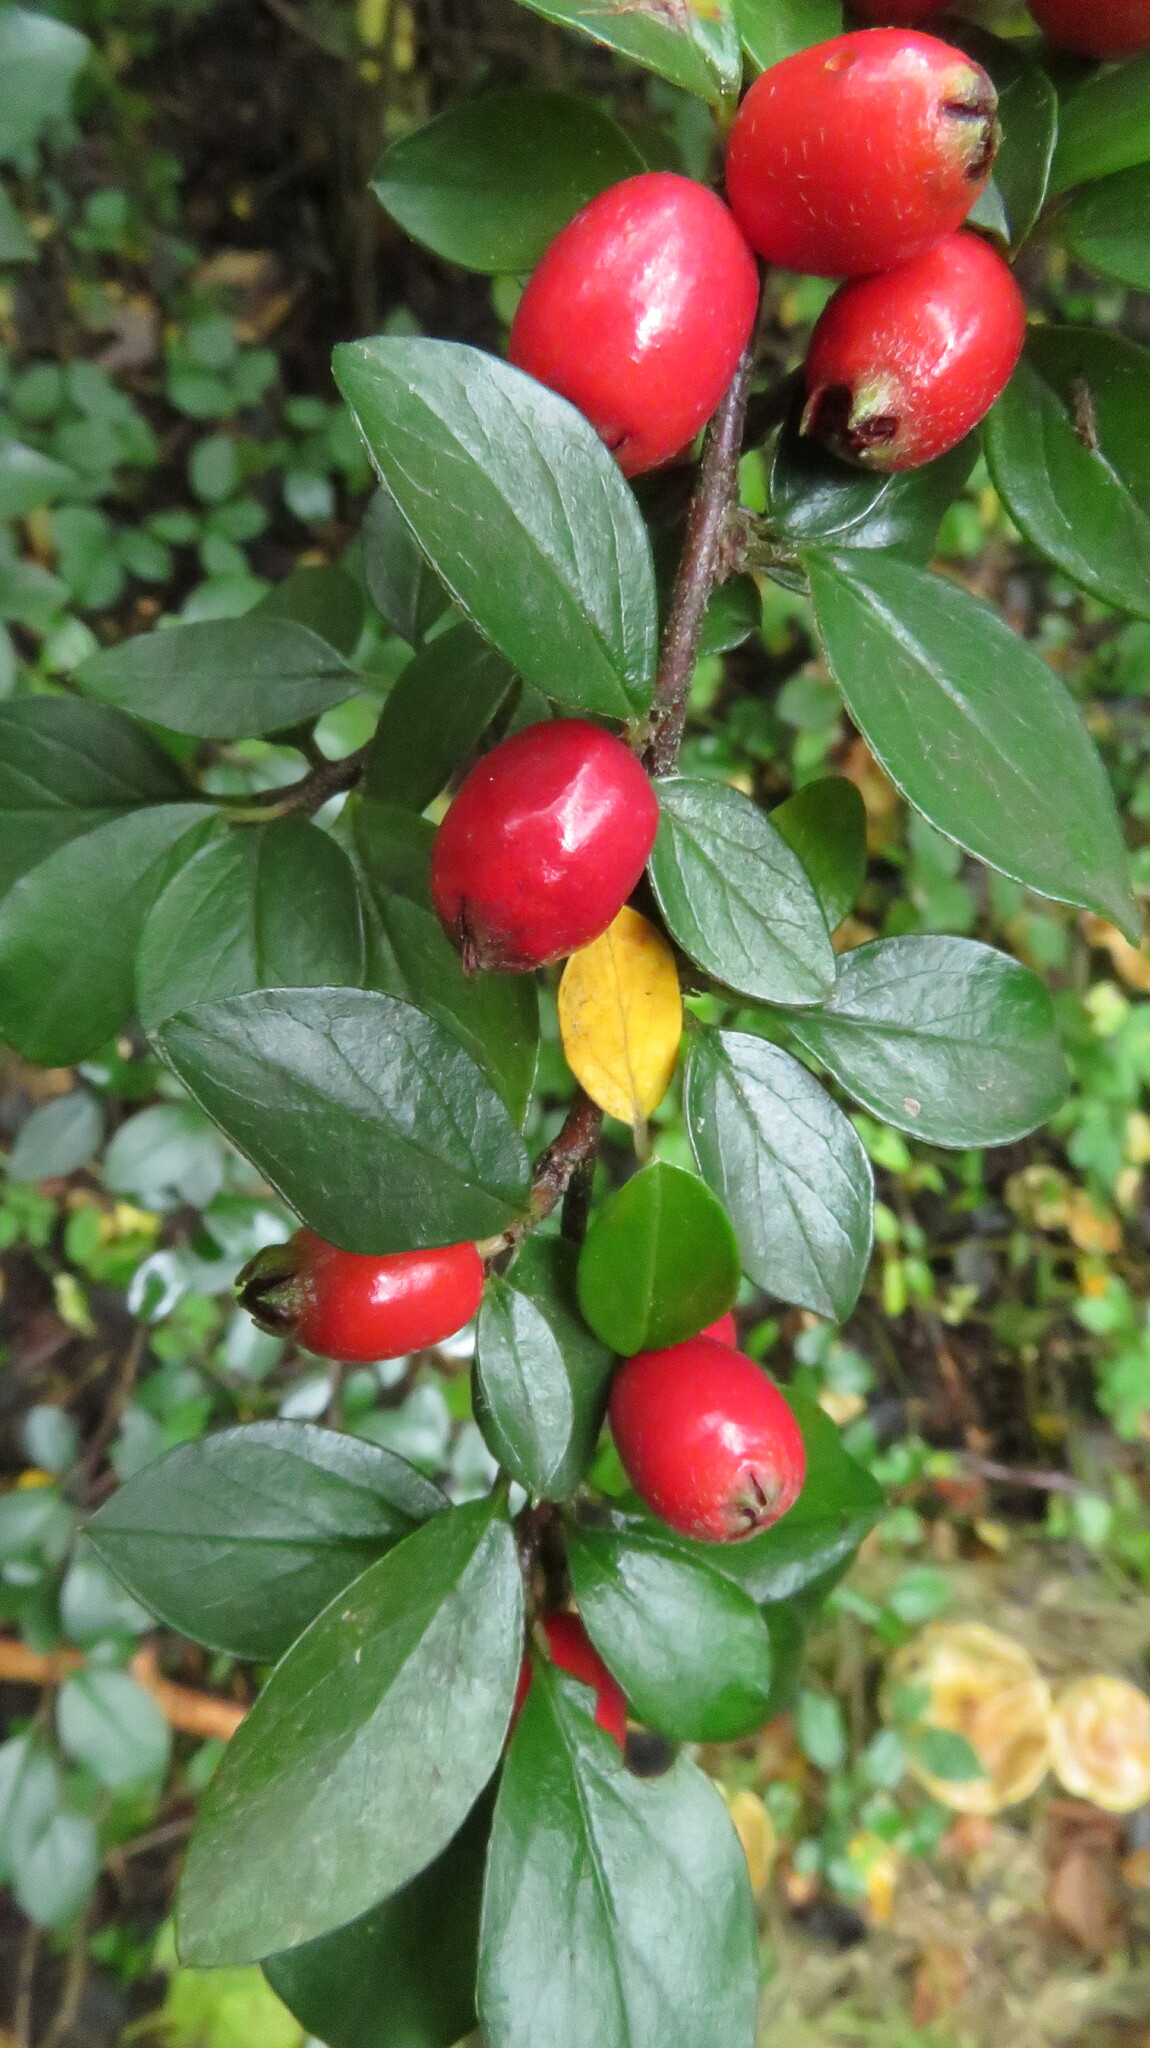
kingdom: Plantae
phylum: Tracheophyta
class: Magnoliopsida
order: Rosales
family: Rosaceae
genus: Cotoneaster
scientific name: Cotoneaster divaricatus
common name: Spreading cotoneaster
